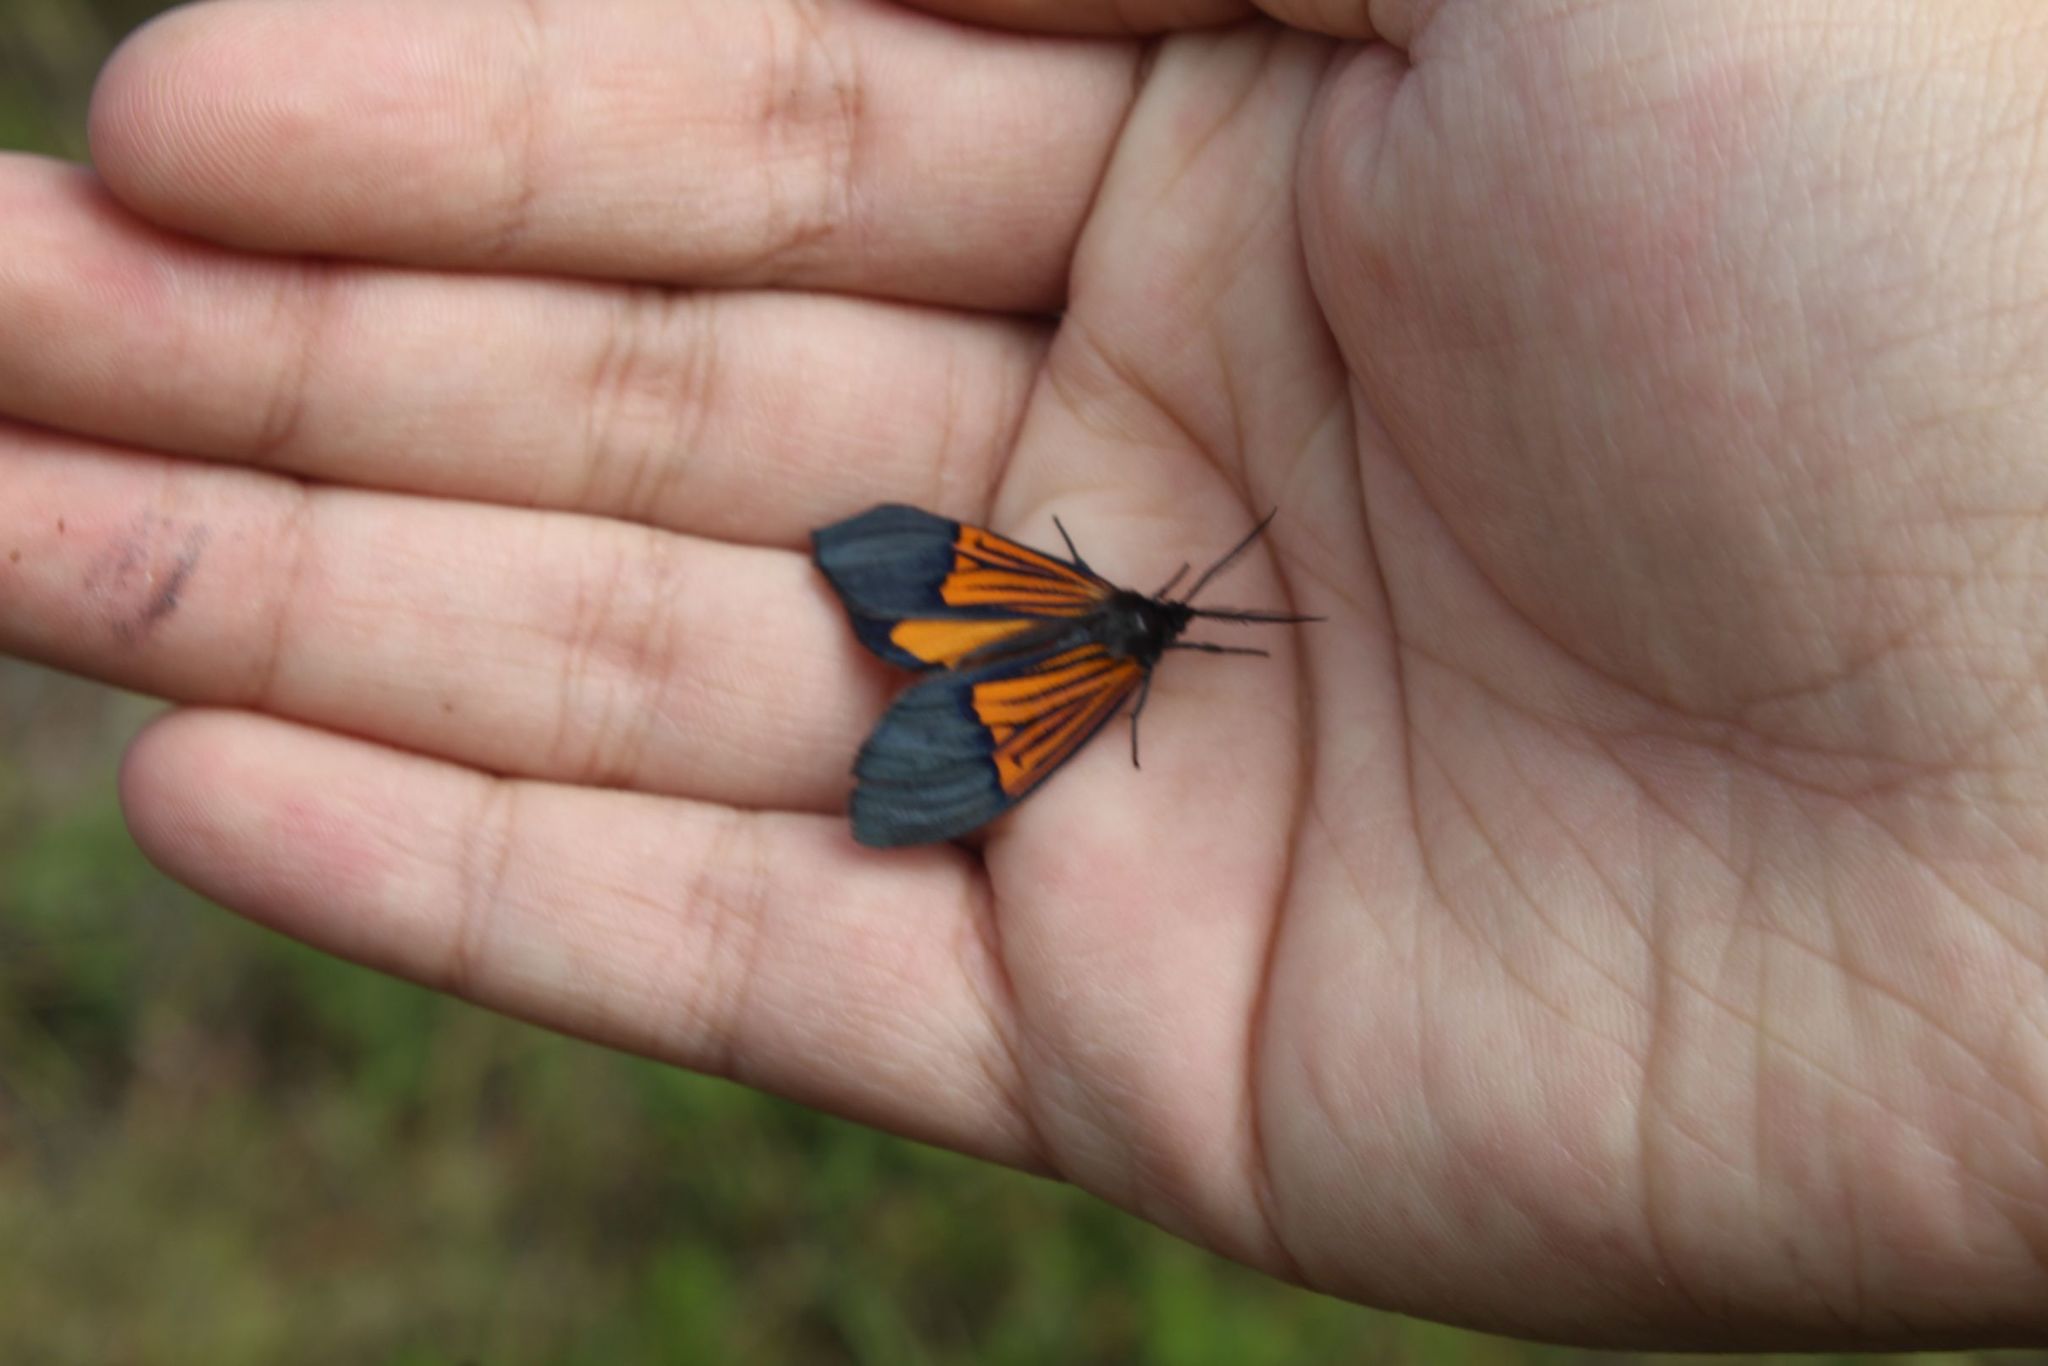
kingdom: Animalia
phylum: Arthropoda
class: Insecta
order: Lepidoptera
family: Notodontidae
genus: Scea
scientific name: Scea
